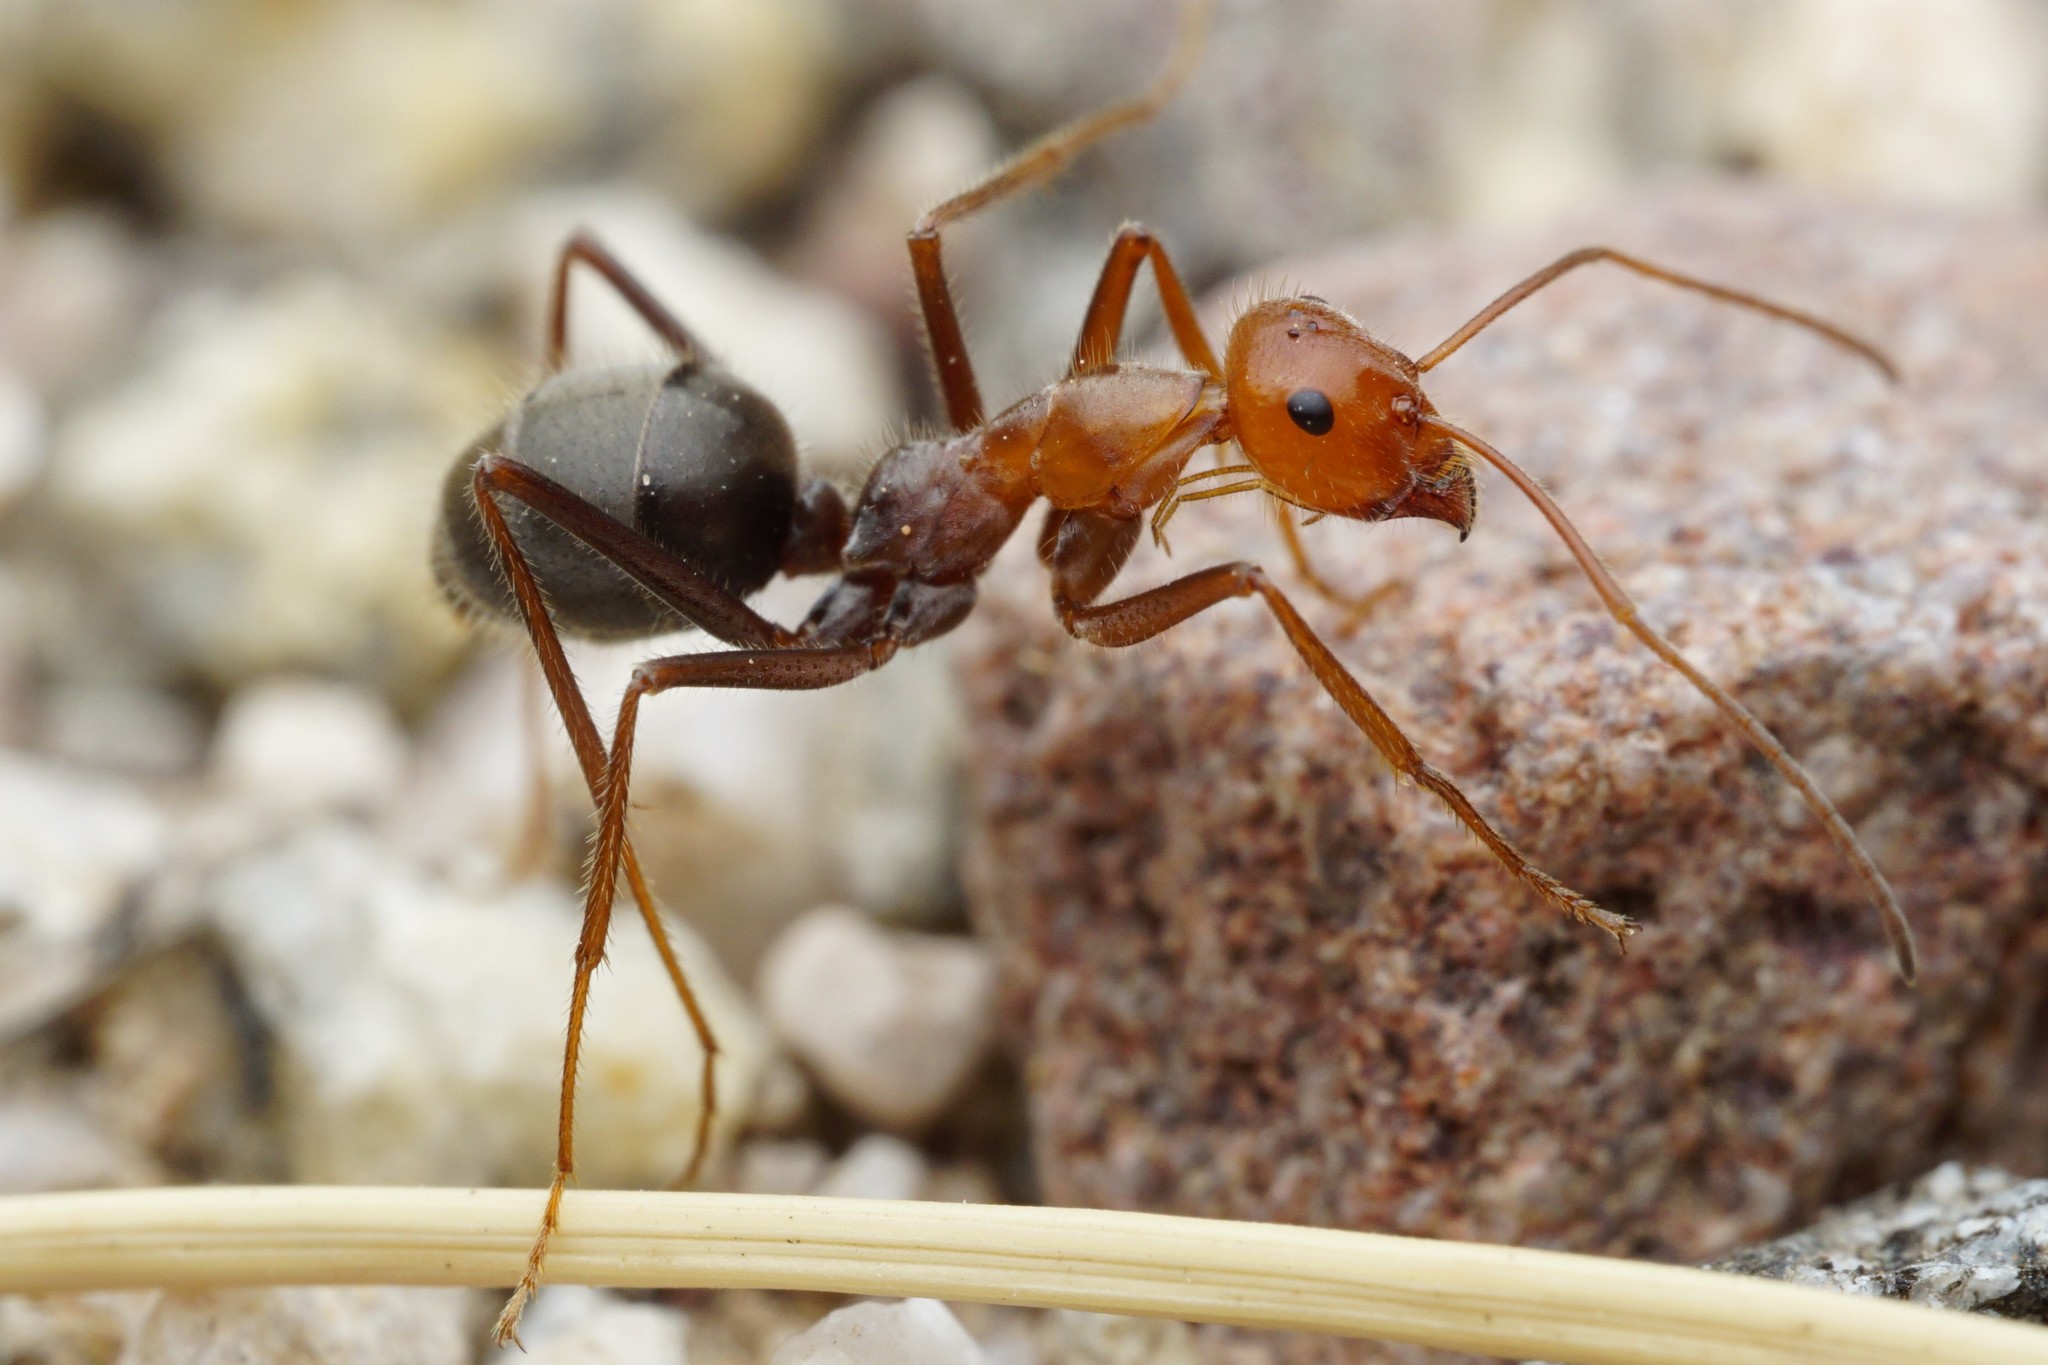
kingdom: Animalia
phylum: Arthropoda
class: Insecta
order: Hymenoptera
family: Formicidae
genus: Myrmecocystus
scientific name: Myrmecocystus mendax
